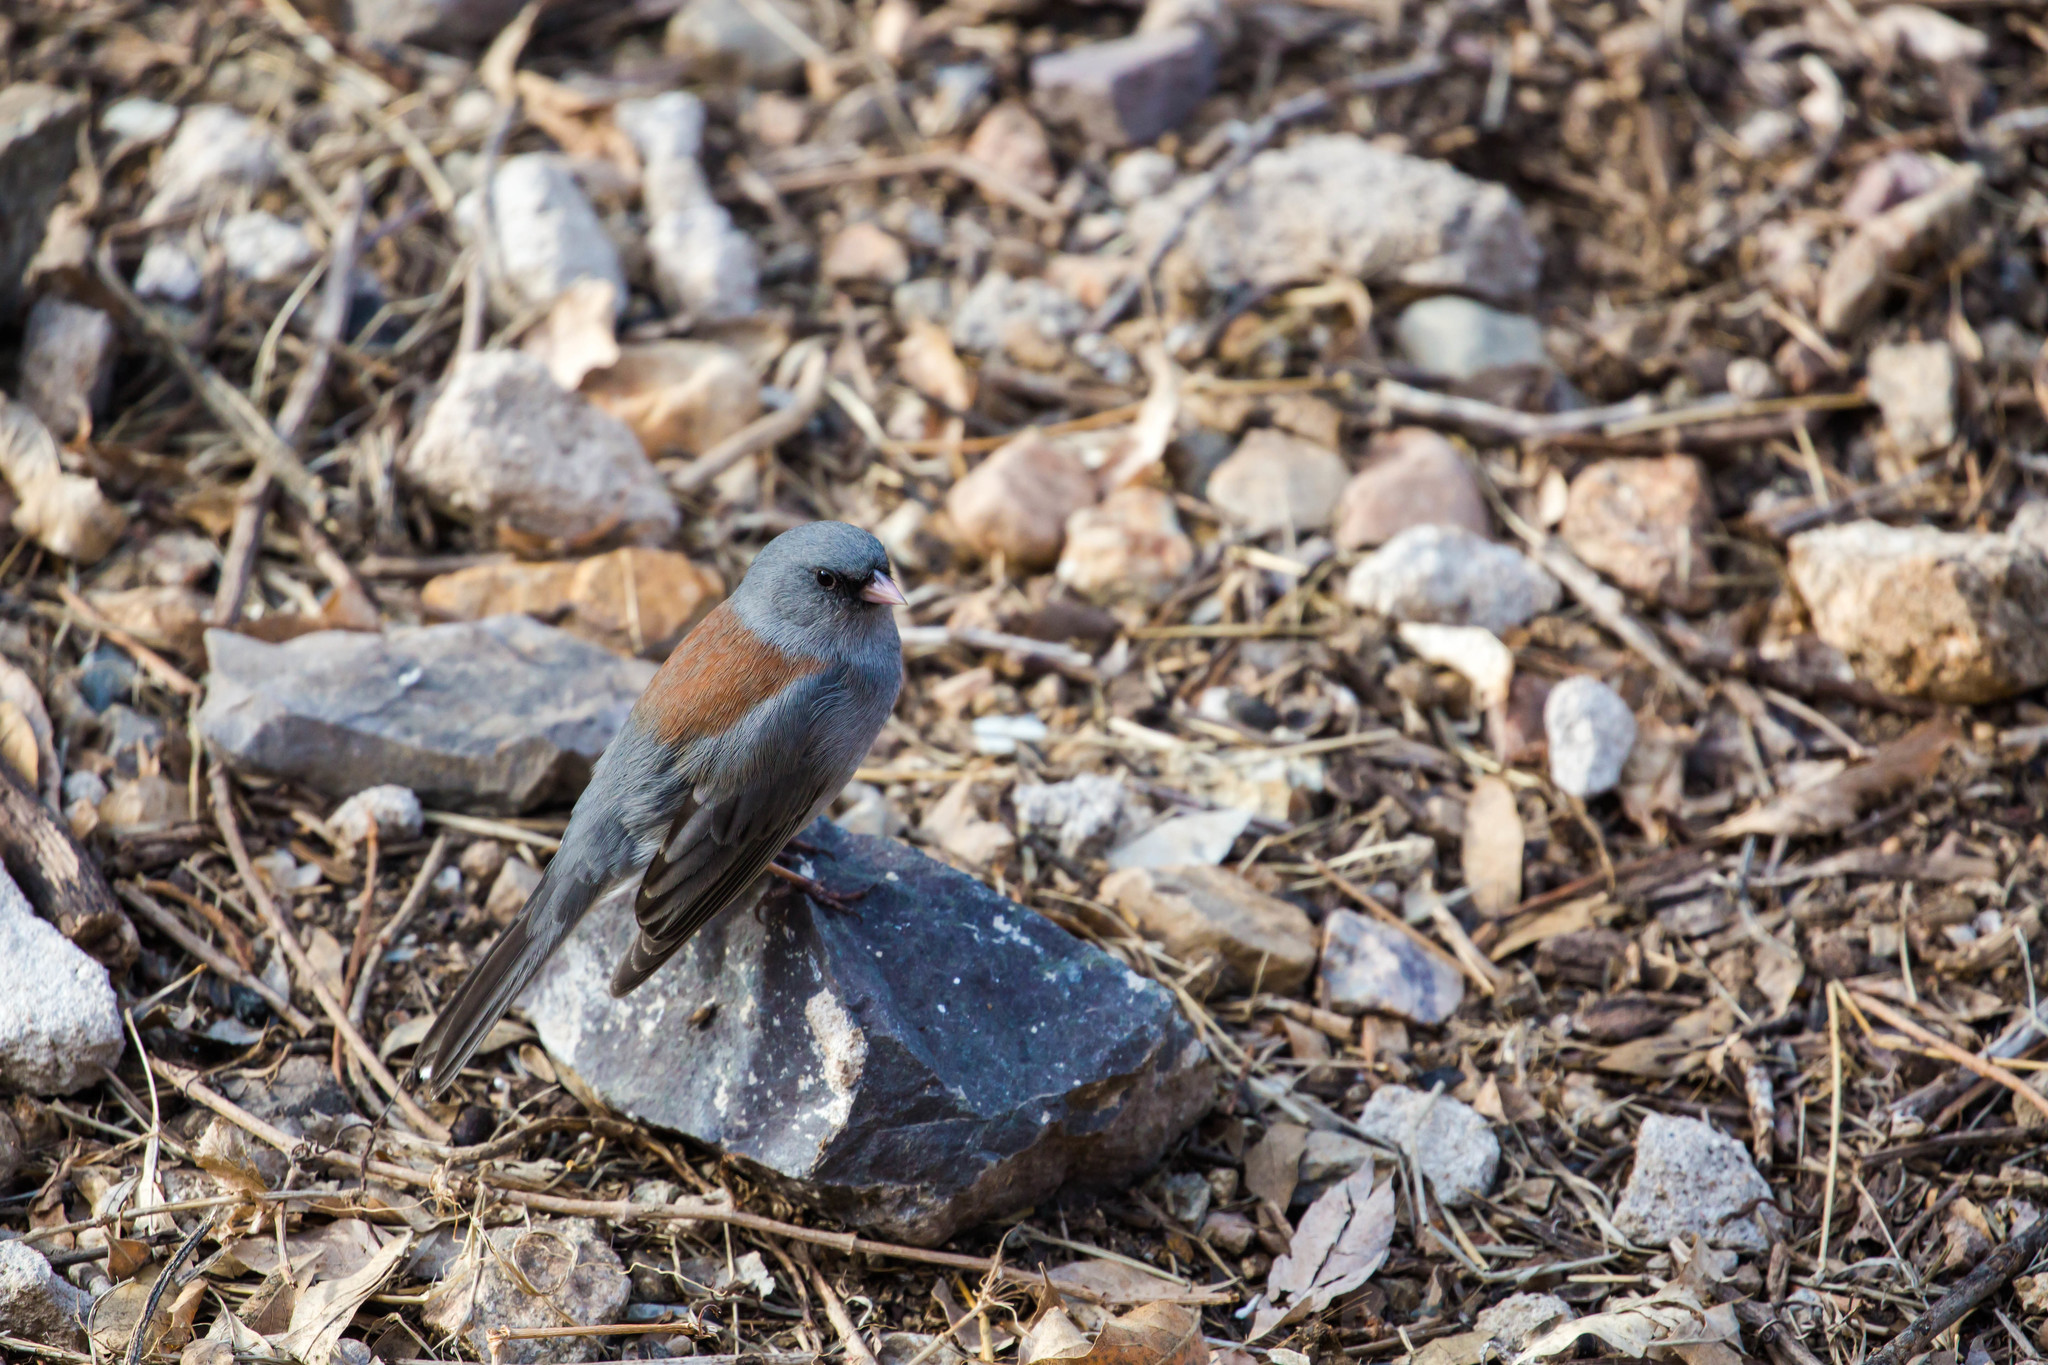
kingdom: Animalia
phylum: Chordata
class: Aves
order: Passeriformes
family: Passerellidae
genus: Junco
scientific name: Junco hyemalis
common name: Dark-eyed junco
